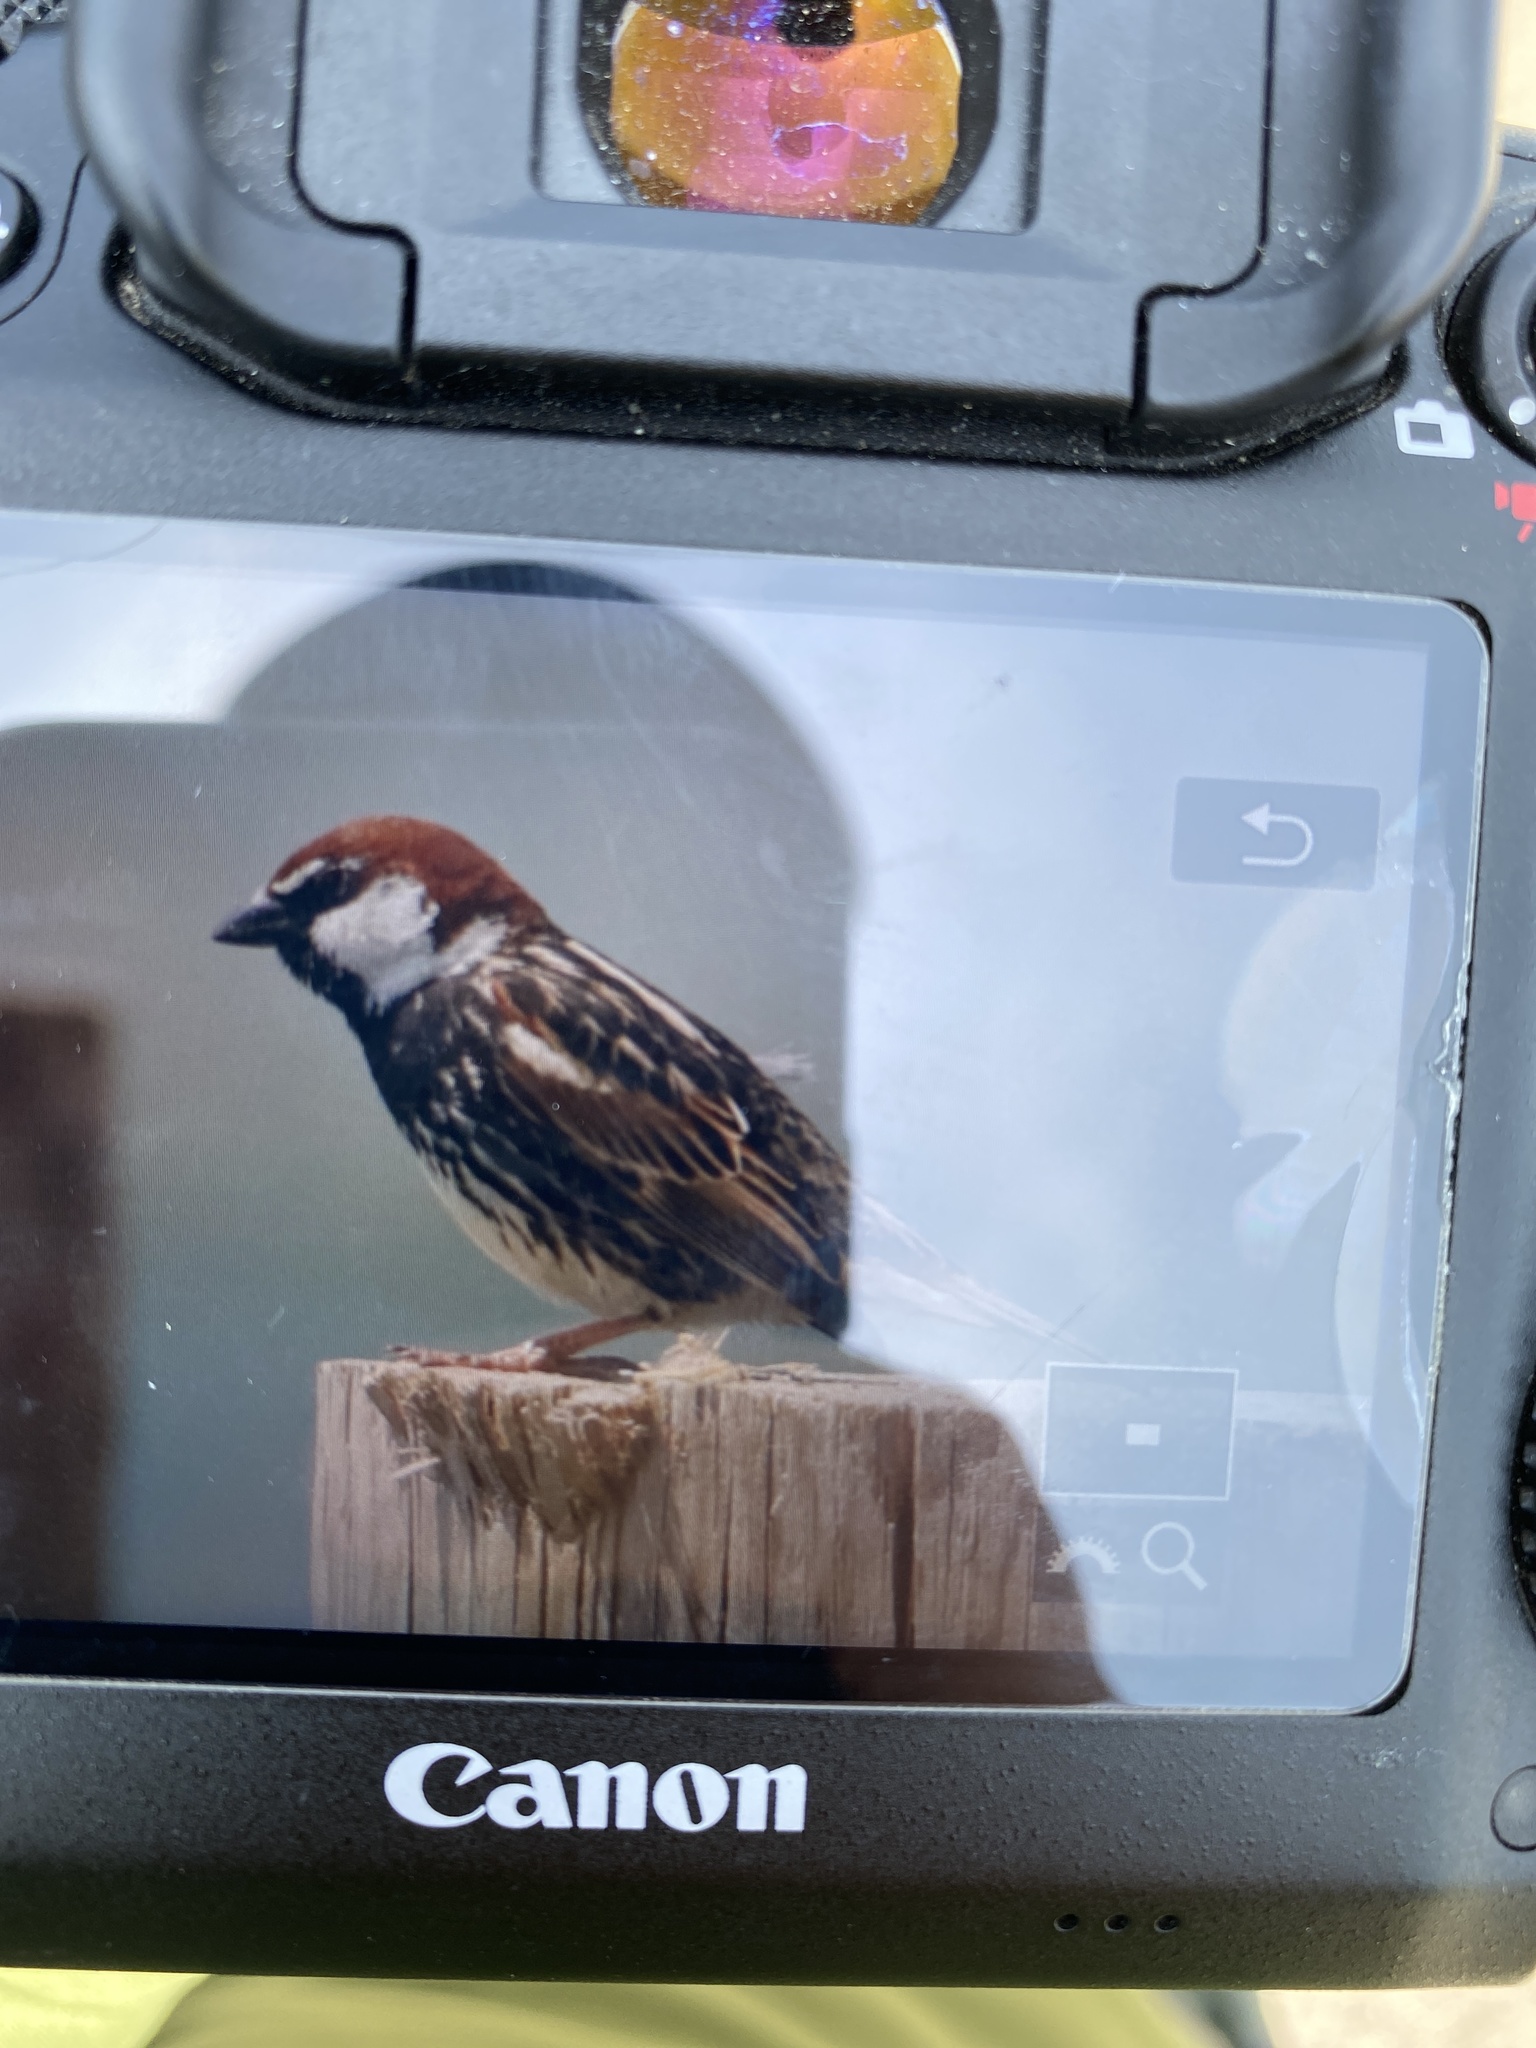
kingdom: Animalia
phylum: Chordata
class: Aves
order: Passeriformes
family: Passeridae
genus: Passer
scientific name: Passer hispaniolensis
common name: Spanish sparrow
